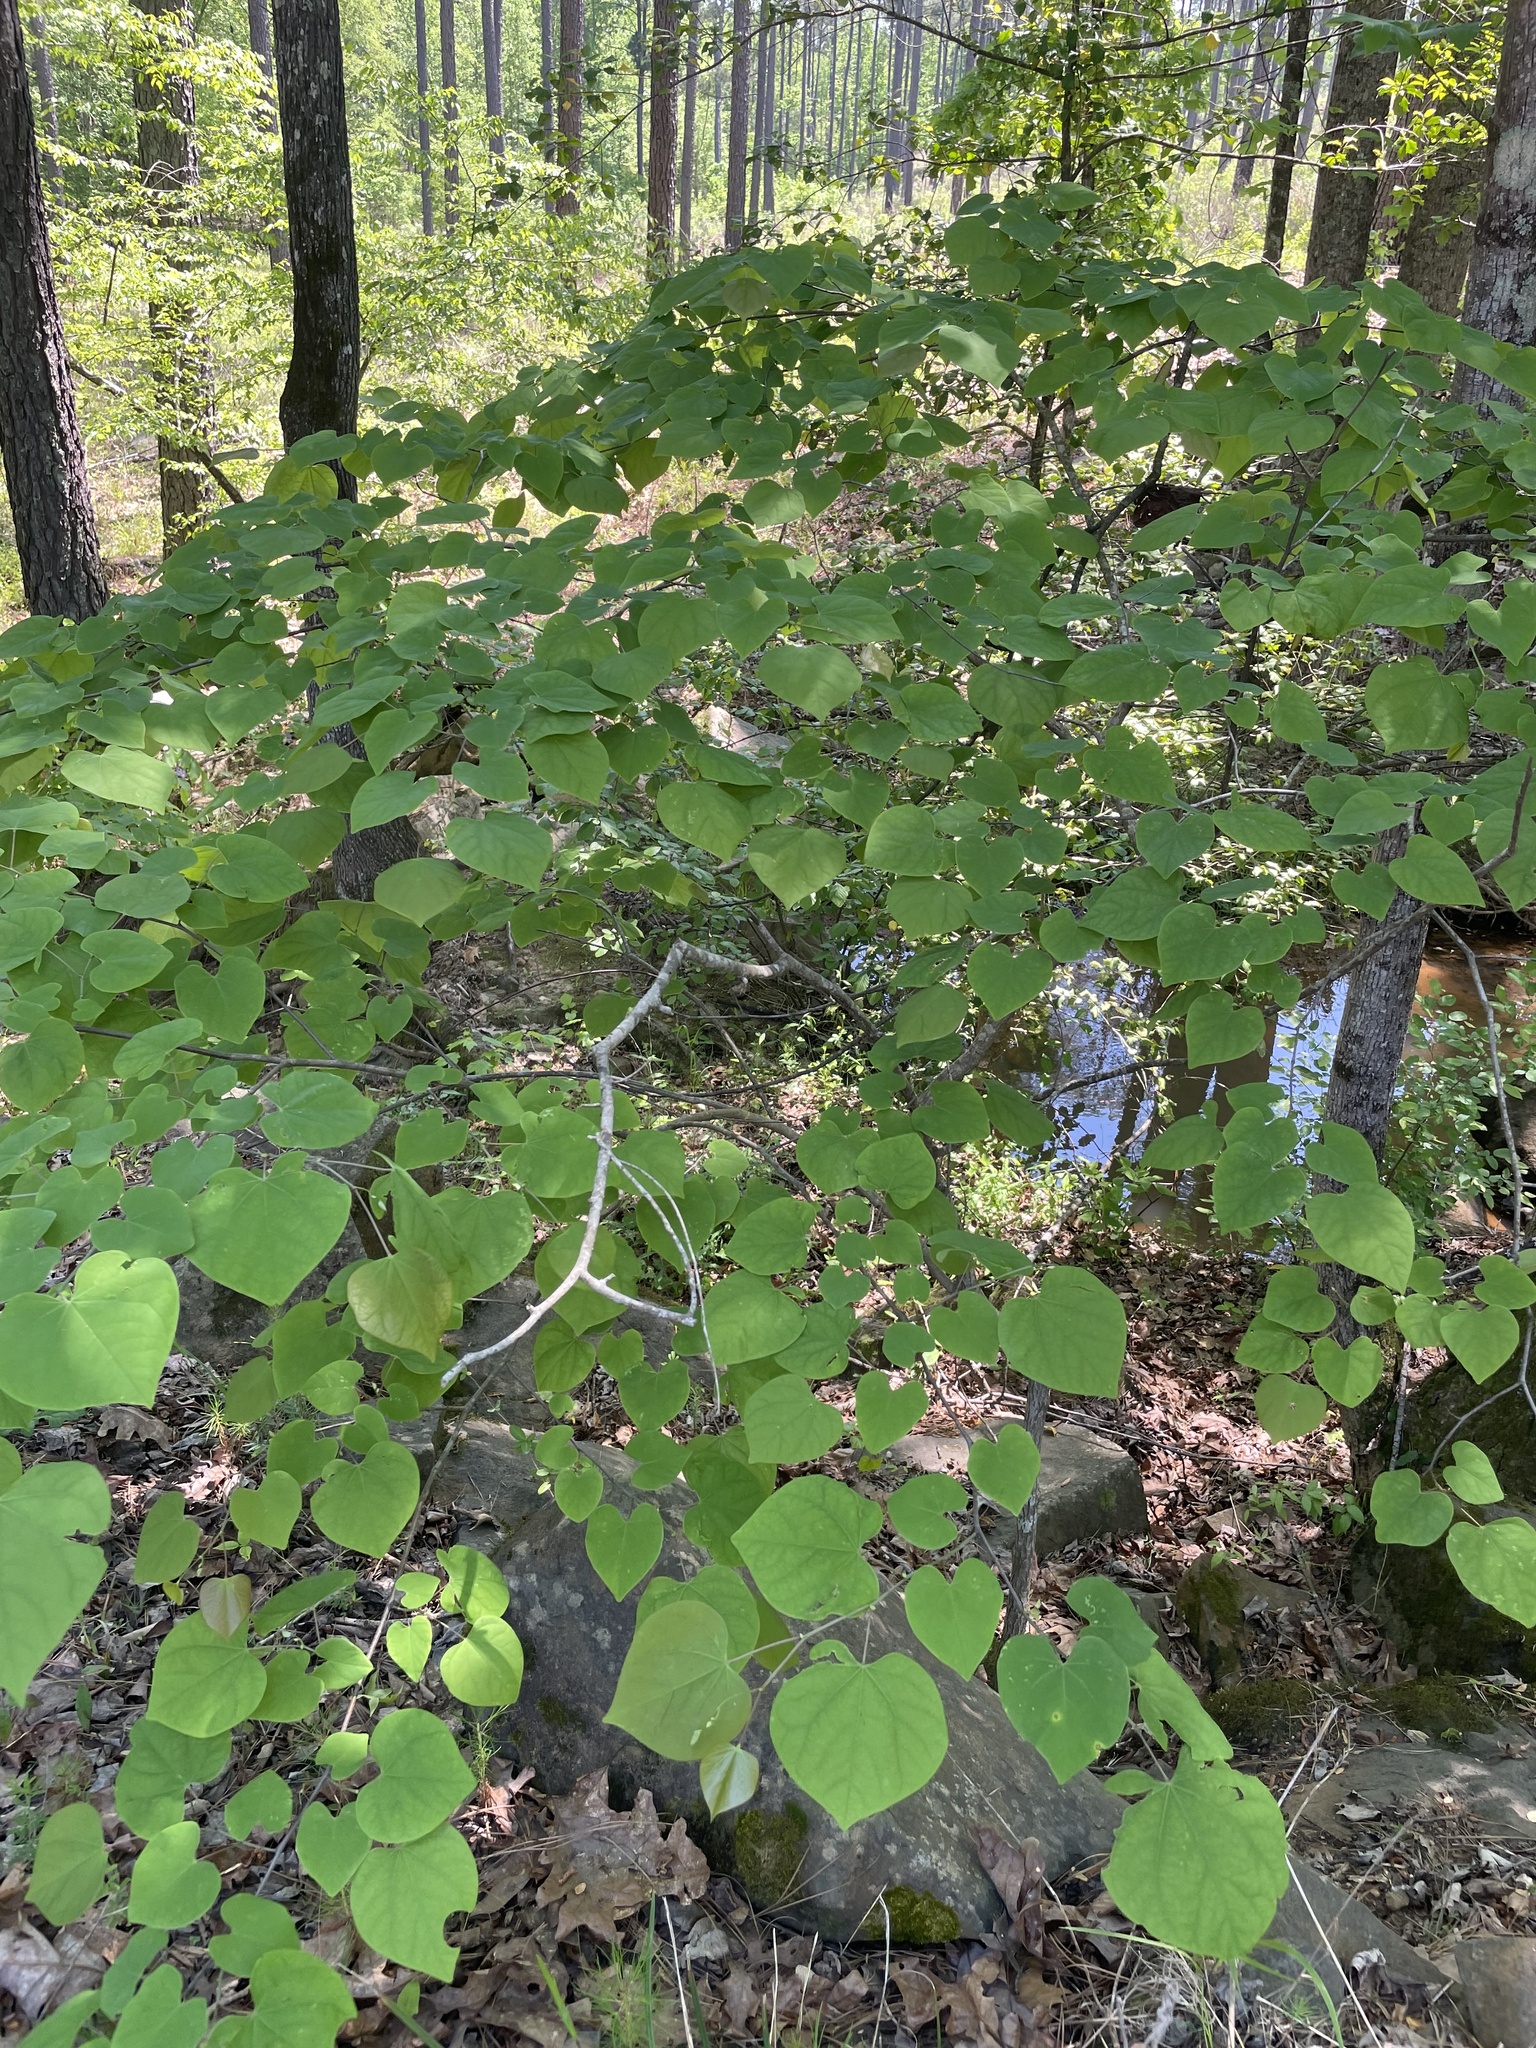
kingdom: Plantae
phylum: Tracheophyta
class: Magnoliopsida
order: Fabales
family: Fabaceae
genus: Cercis
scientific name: Cercis canadensis
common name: Eastern redbud
